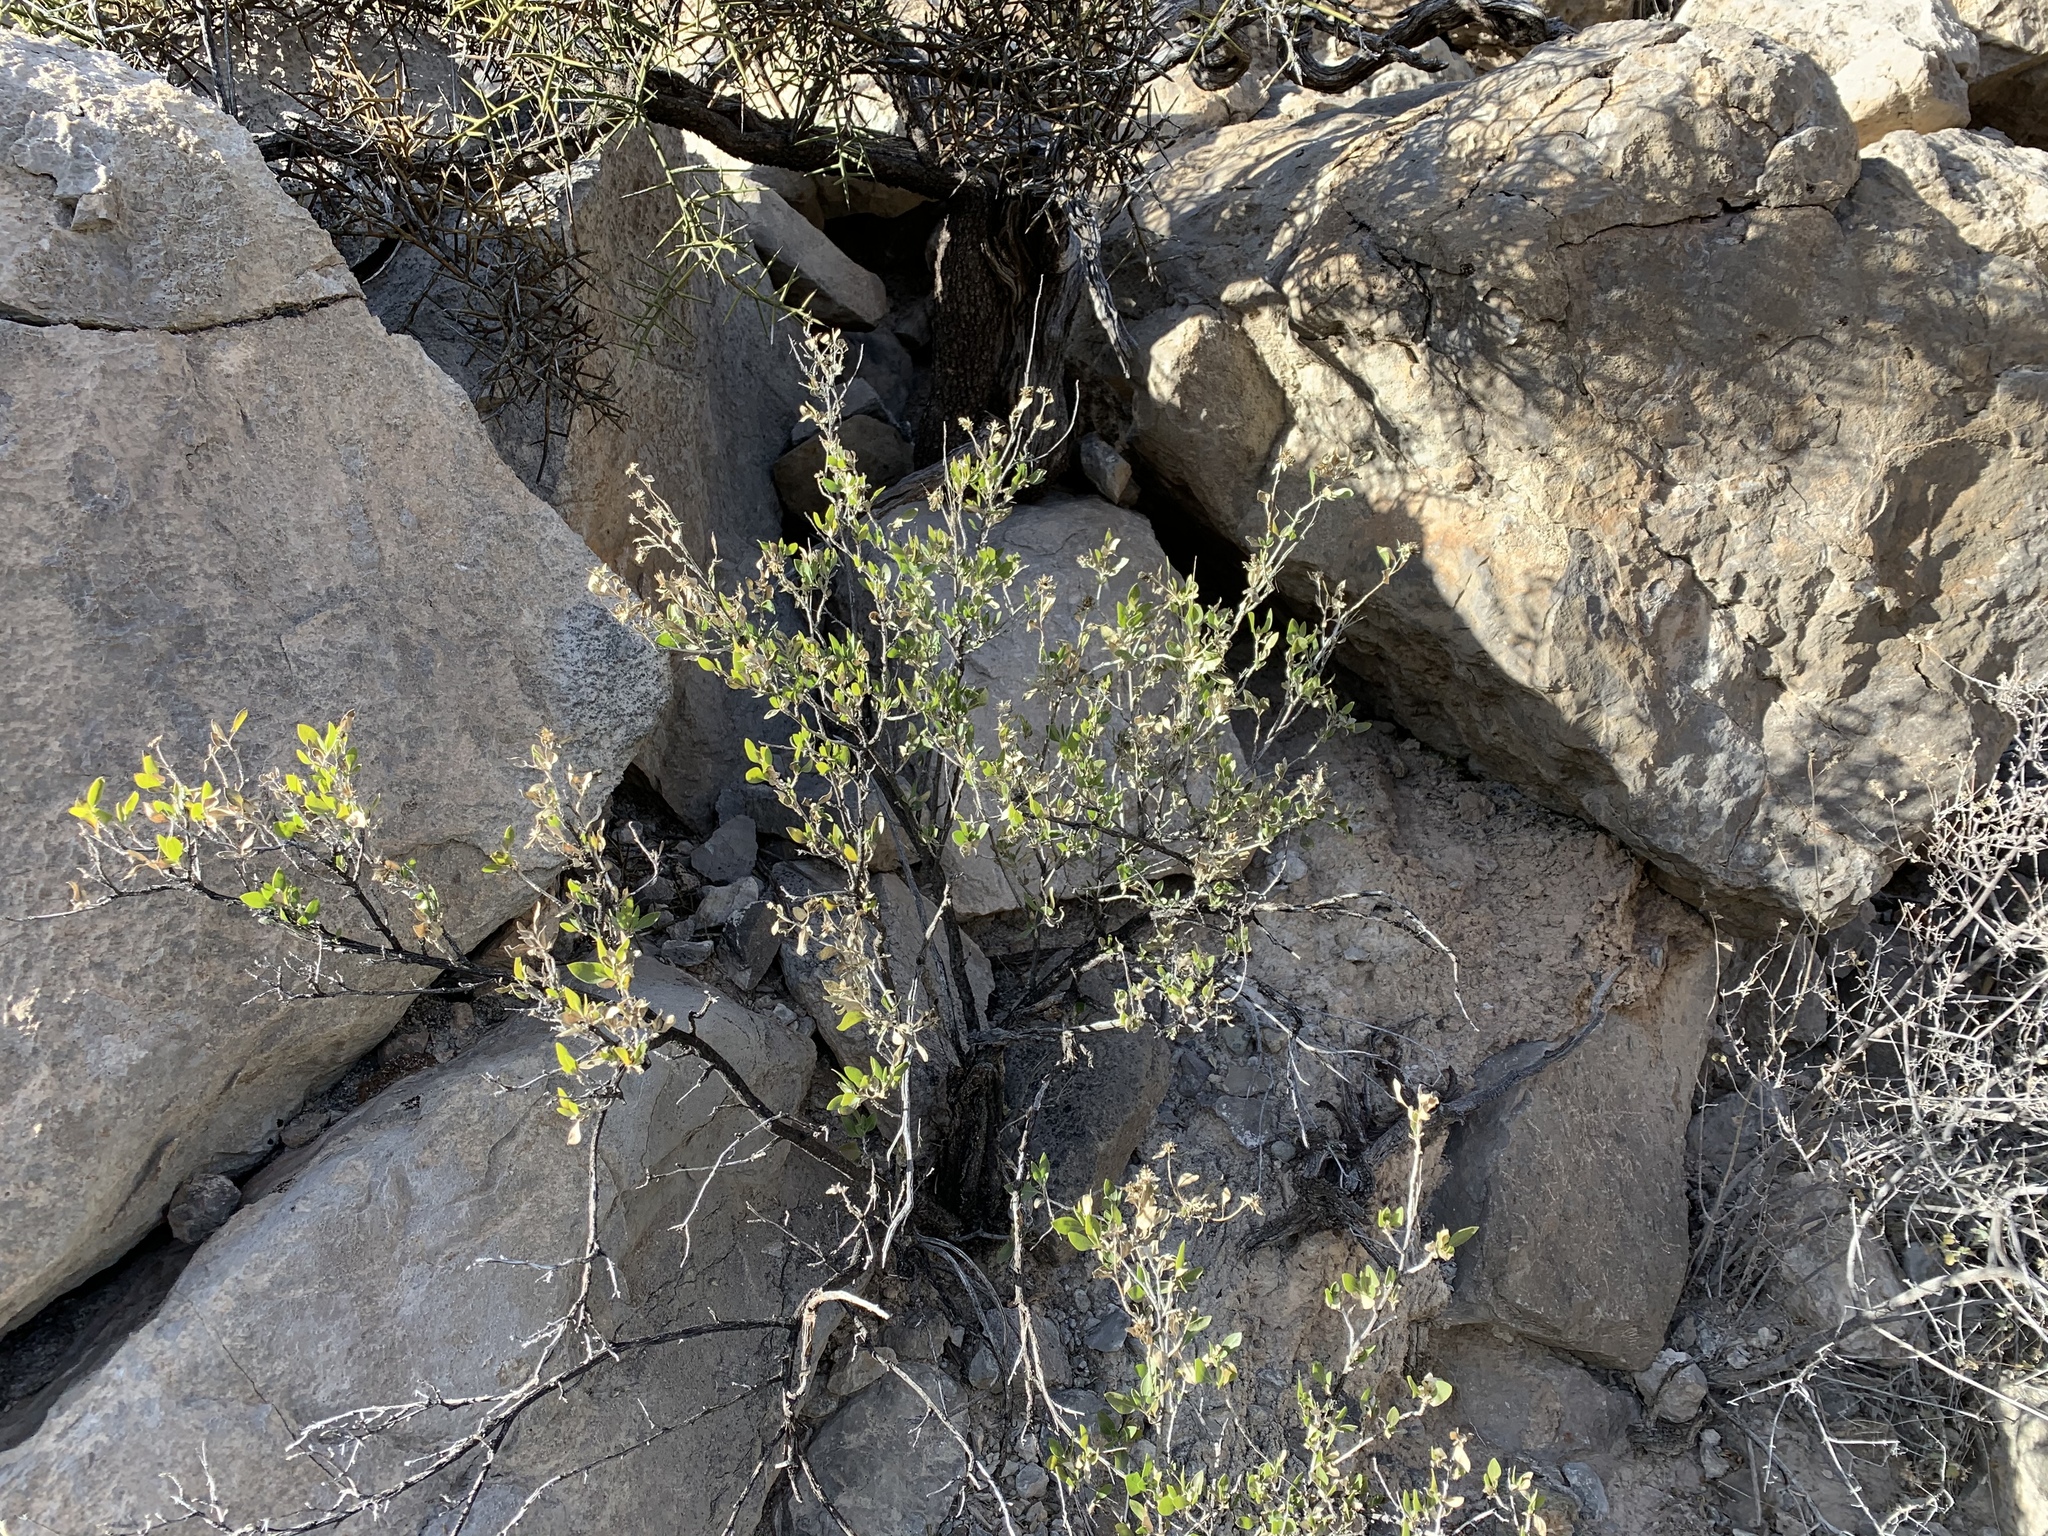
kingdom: Plantae
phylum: Tracheophyta
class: Magnoliopsida
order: Asterales
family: Asteraceae
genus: Flourensia
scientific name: Flourensia cernua
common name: Varnishbush
